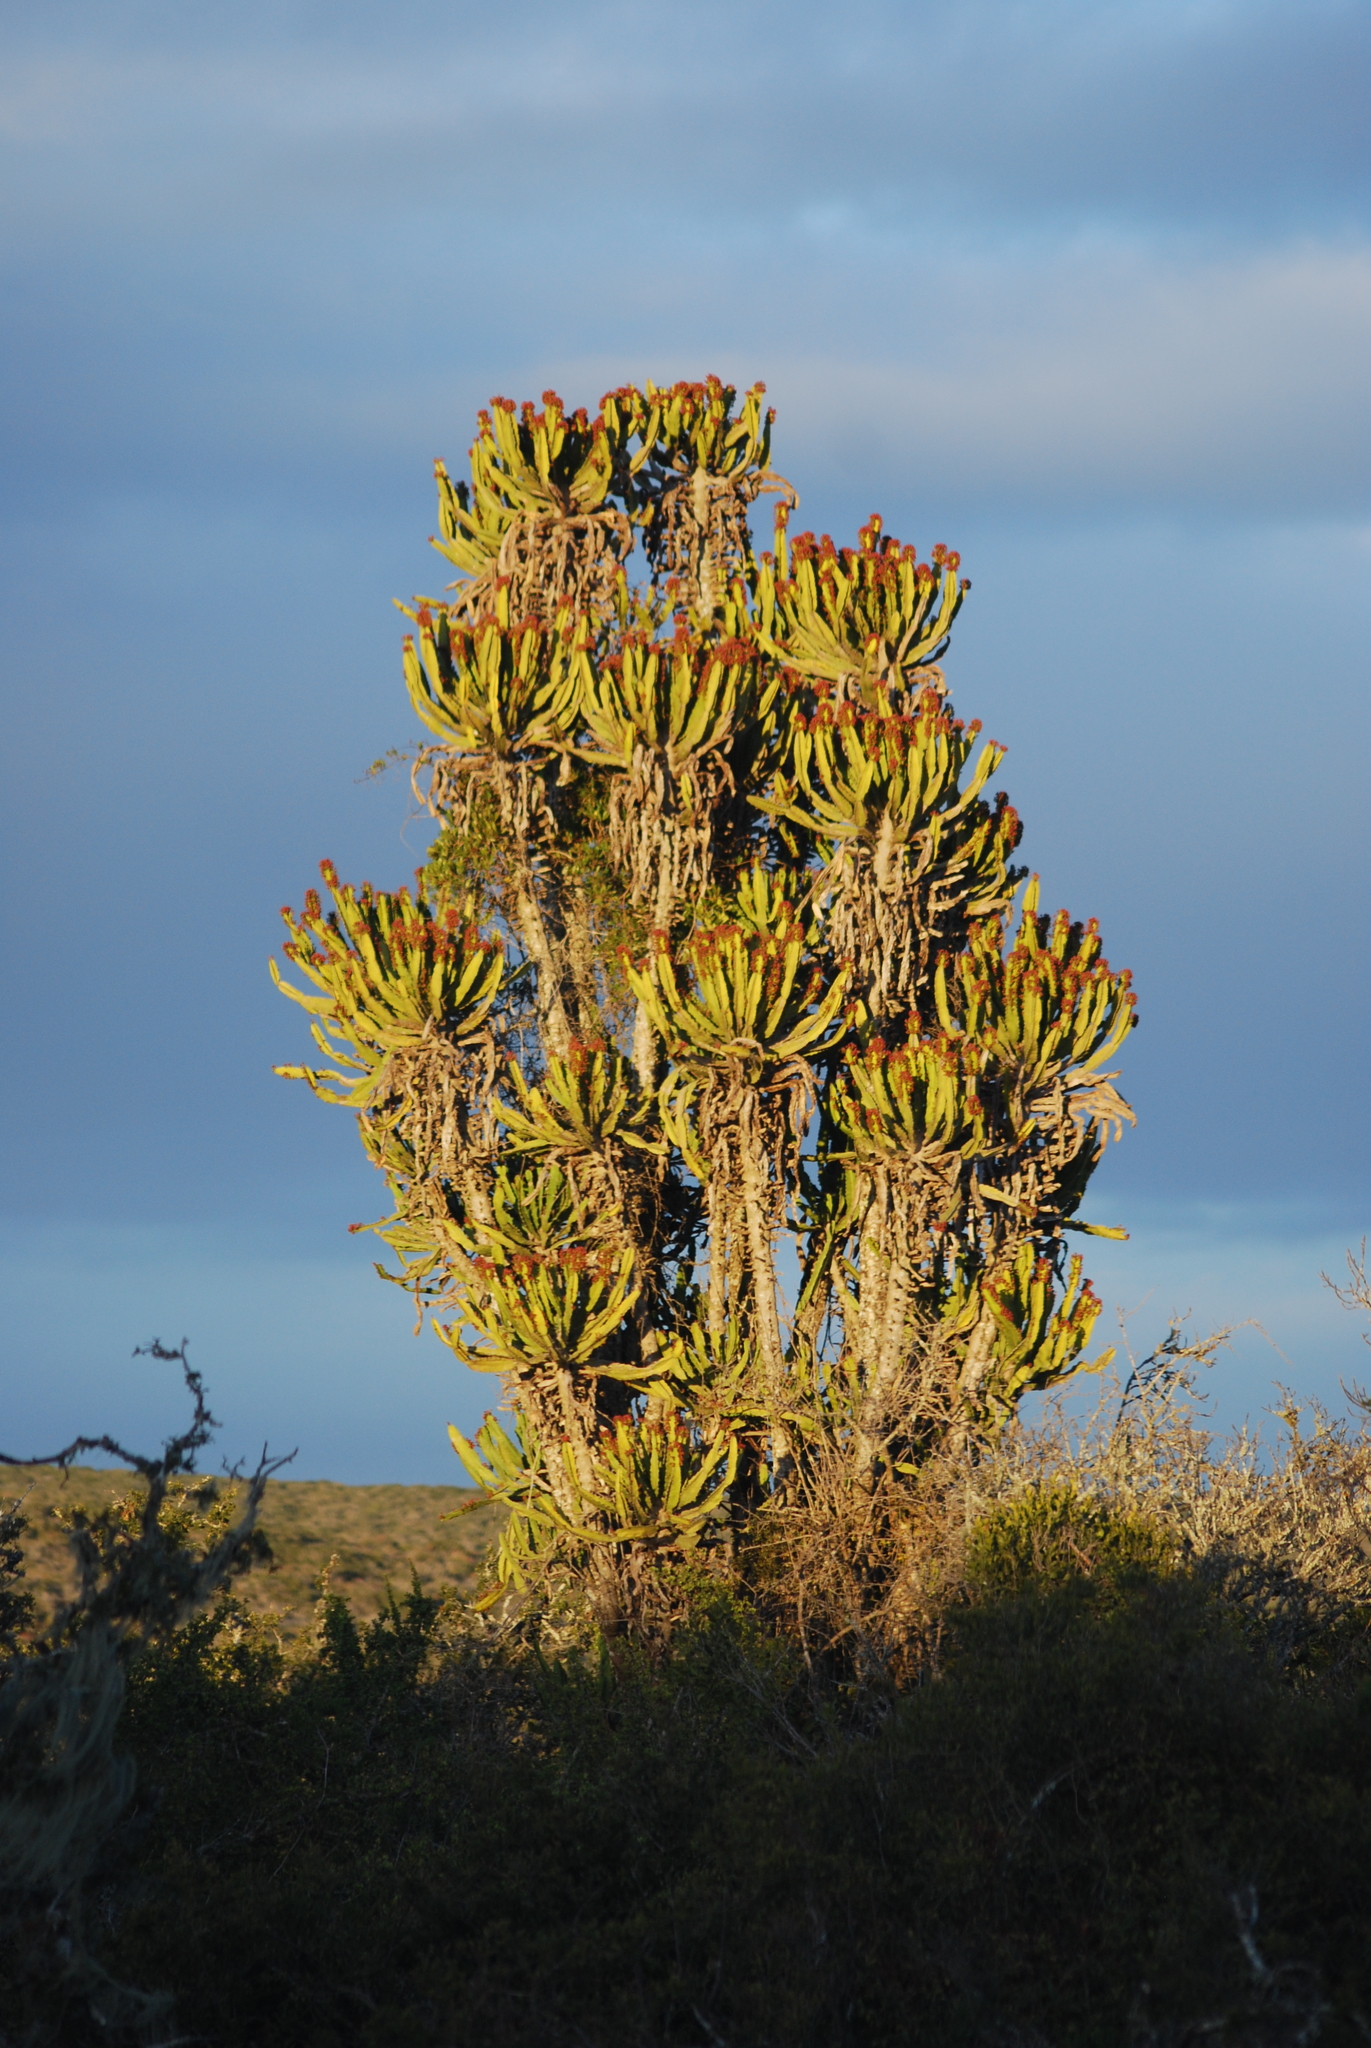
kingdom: Plantae
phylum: Tracheophyta
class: Magnoliopsida
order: Malpighiales
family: Euphorbiaceae
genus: Euphorbia
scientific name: Euphorbia triangularis
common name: Chandelier tree
